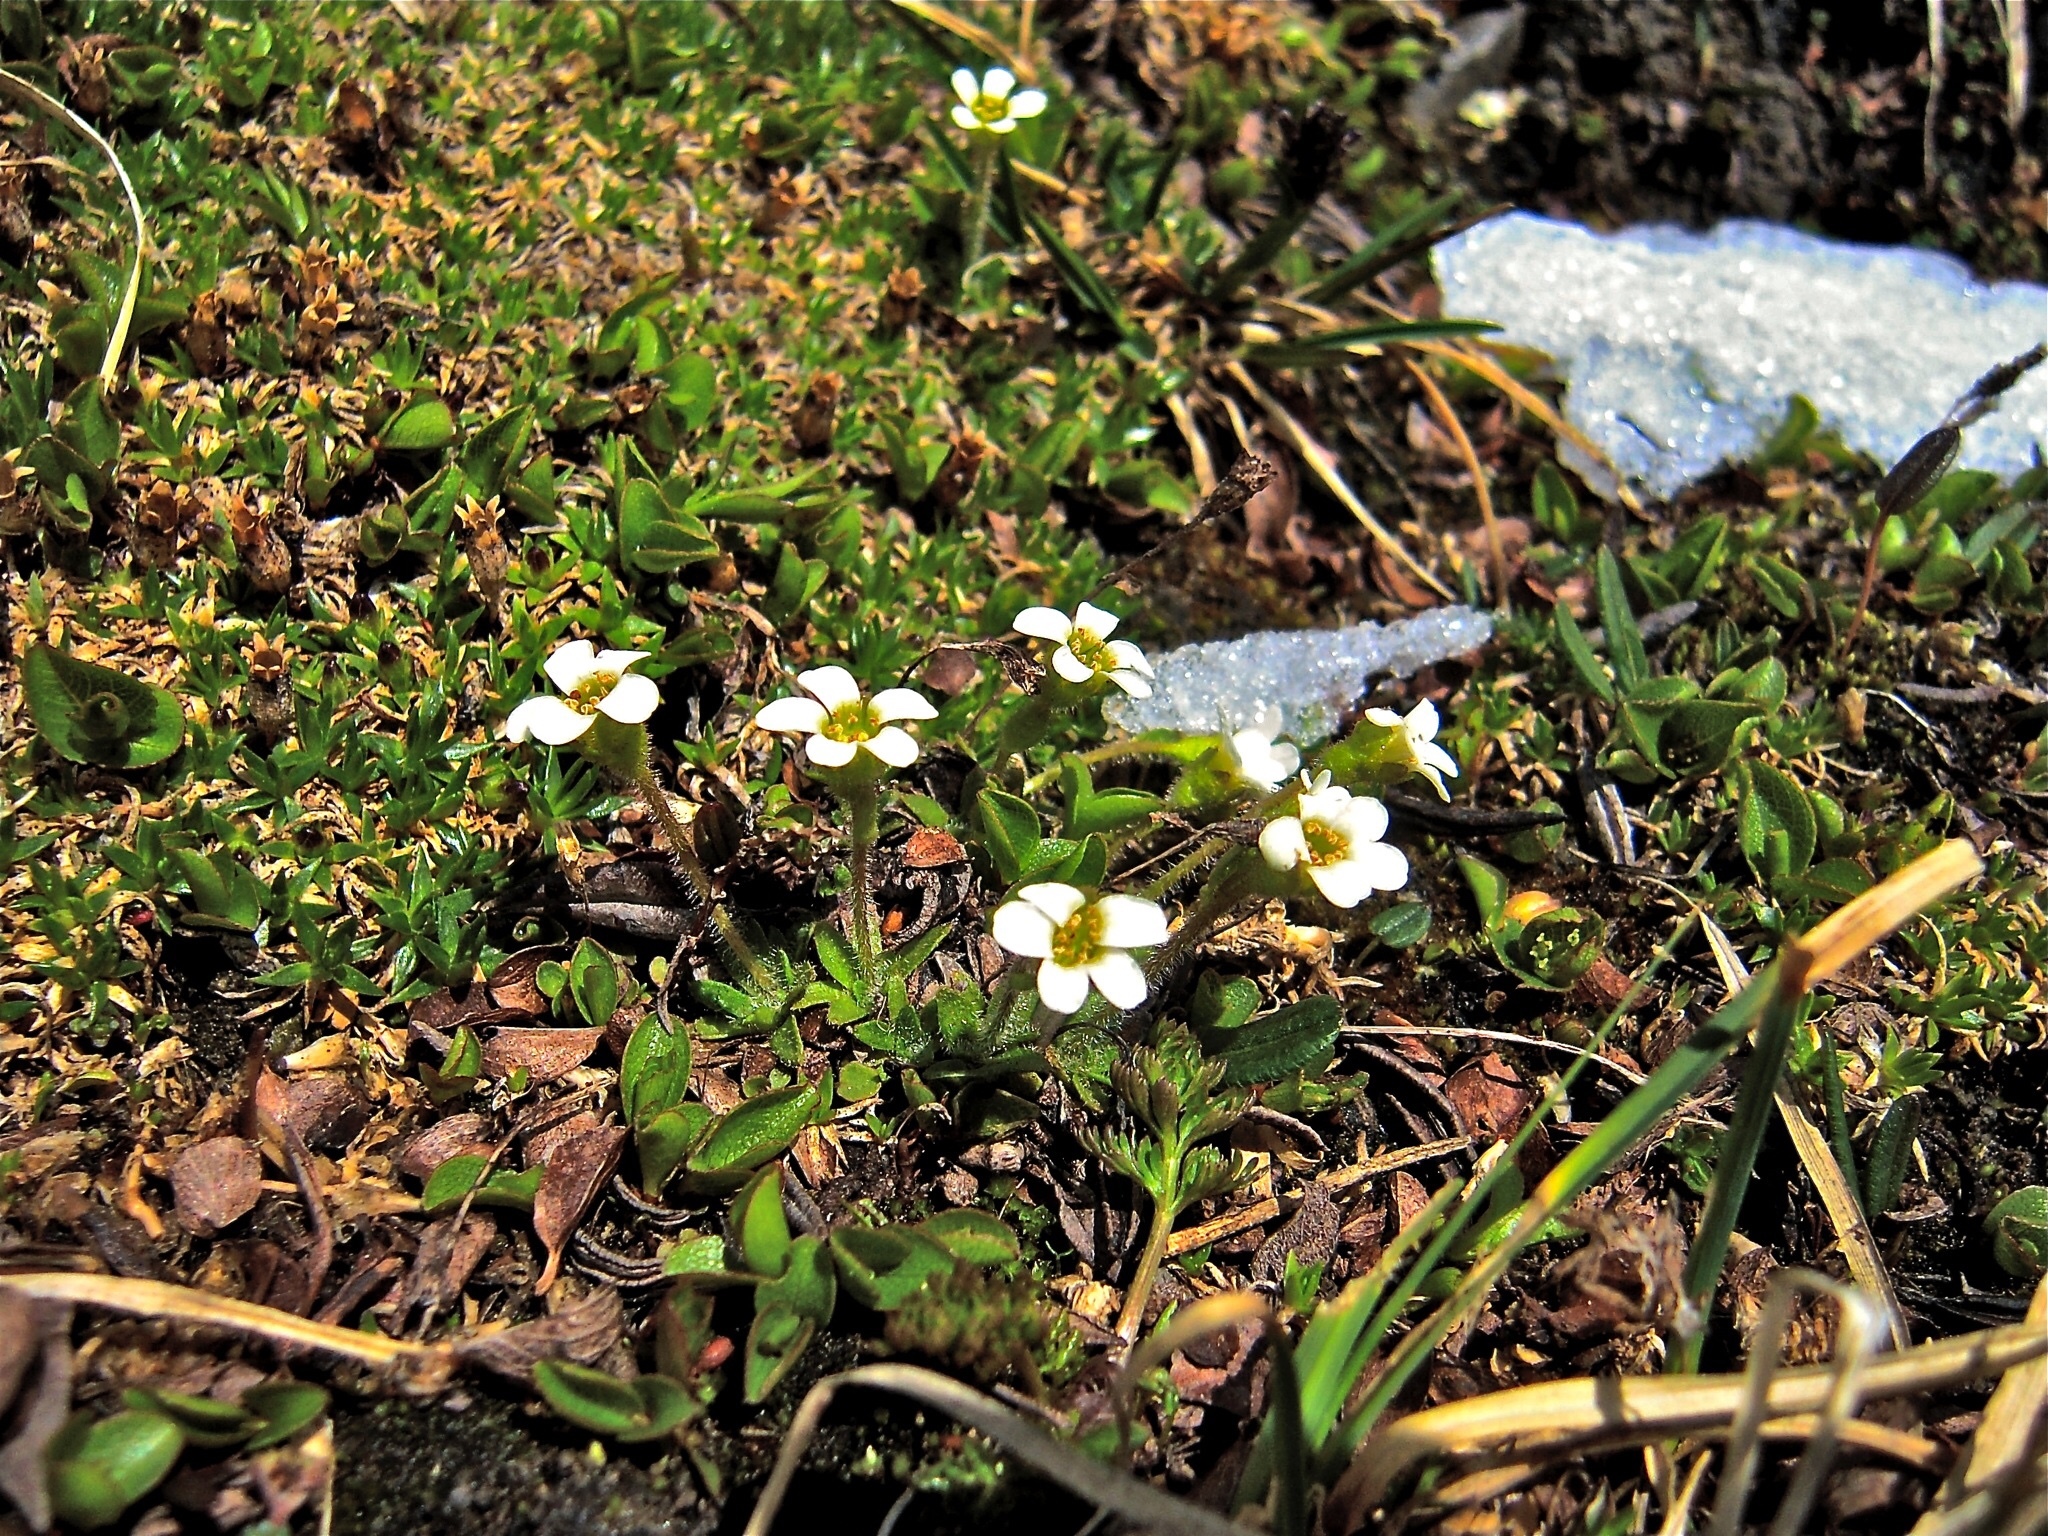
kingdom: Plantae
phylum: Tracheophyta
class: Magnoliopsida
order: Saxifragales
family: Saxifragaceae
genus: Saxifraga
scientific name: Saxifraga androsacea
